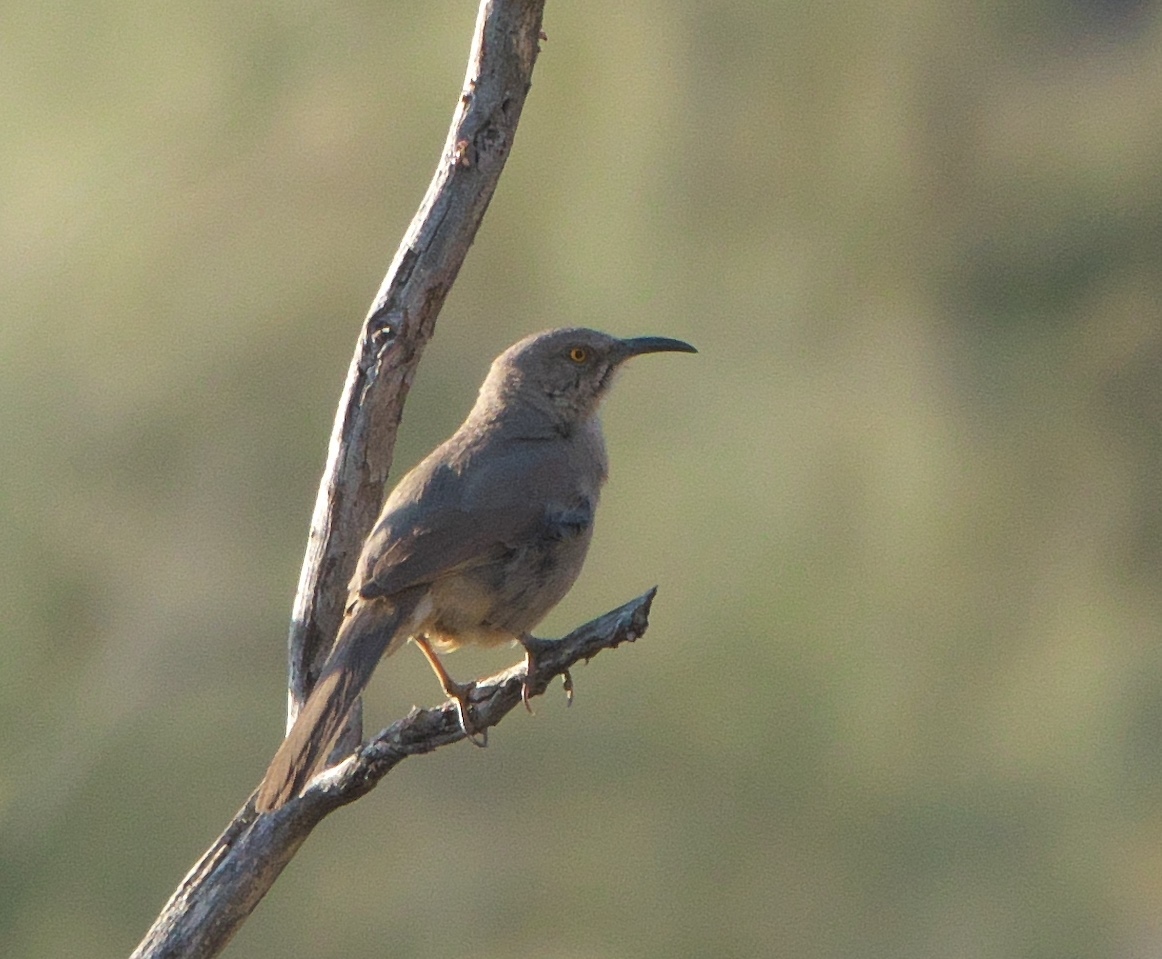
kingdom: Animalia
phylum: Chordata
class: Aves
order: Passeriformes
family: Mimidae
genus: Toxostoma
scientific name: Toxostoma curvirostre
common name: Curve-billed thrasher
